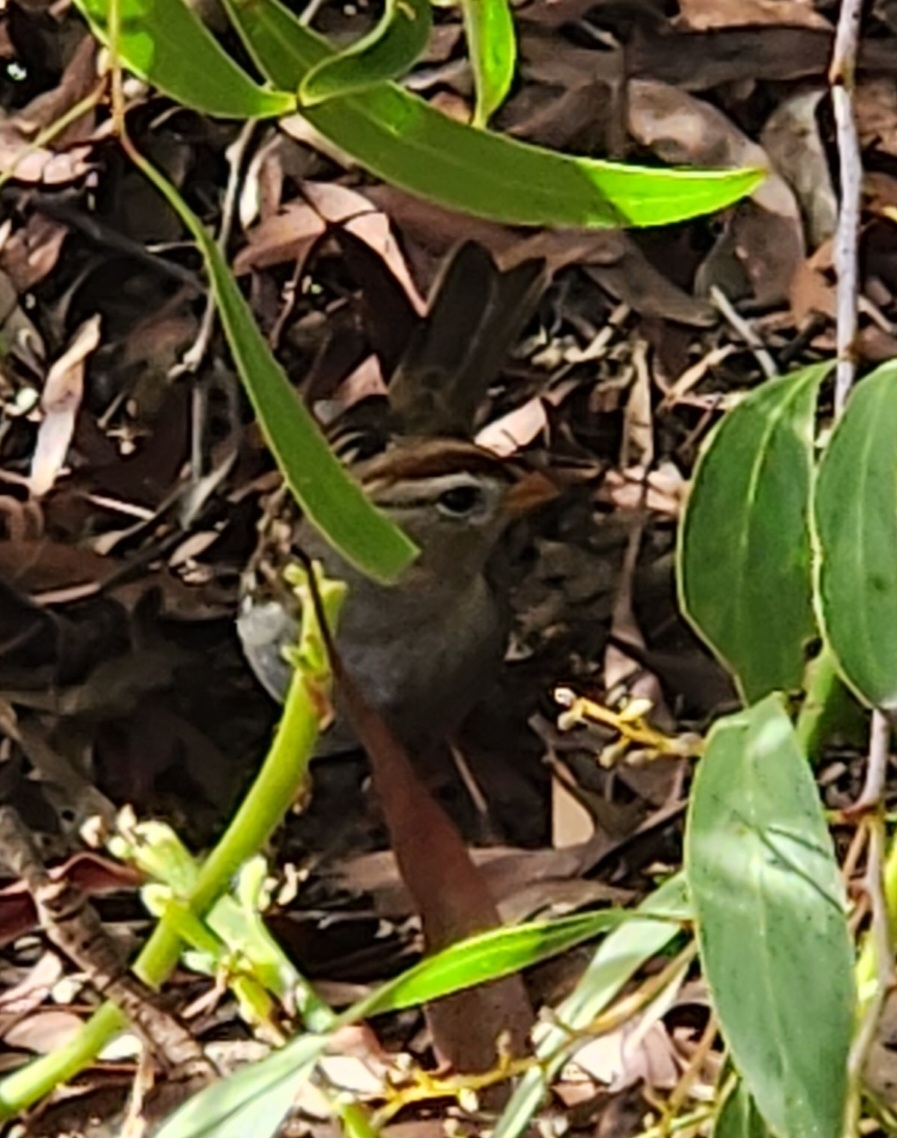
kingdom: Animalia
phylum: Chordata
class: Aves
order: Passeriformes
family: Passerellidae
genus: Zonotrichia
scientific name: Zonotrichia leucophrys
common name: White-crowned sparrow
